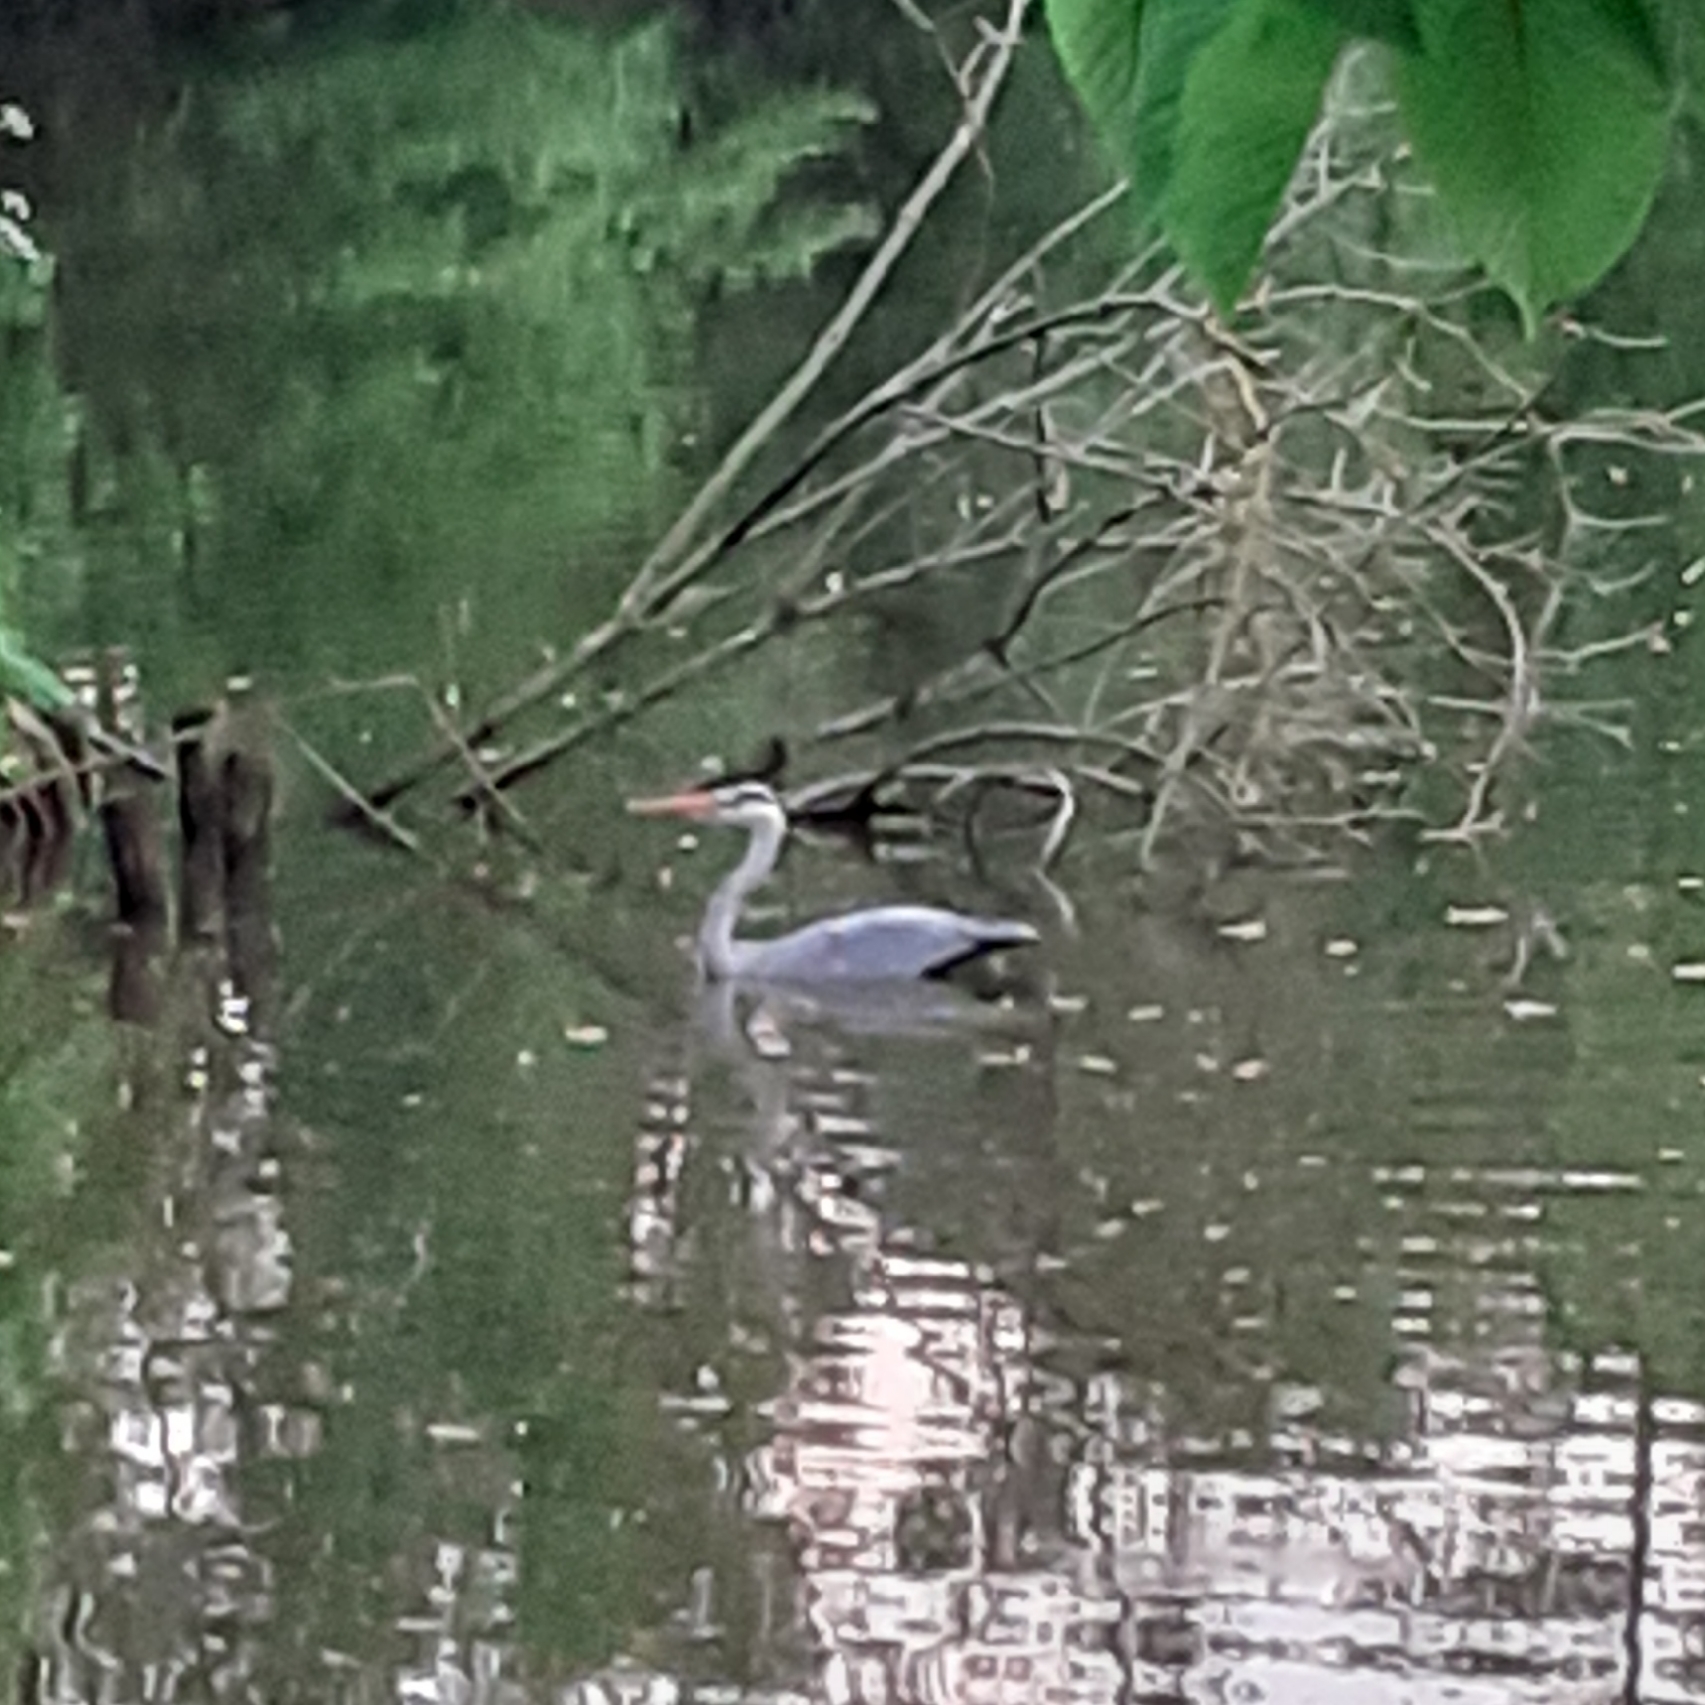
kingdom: Animalia
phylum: Chordata
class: Aves
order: Pelecaniformes
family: Ardeidae
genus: Ardea
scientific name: Ardea cinerea
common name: Grey heron
